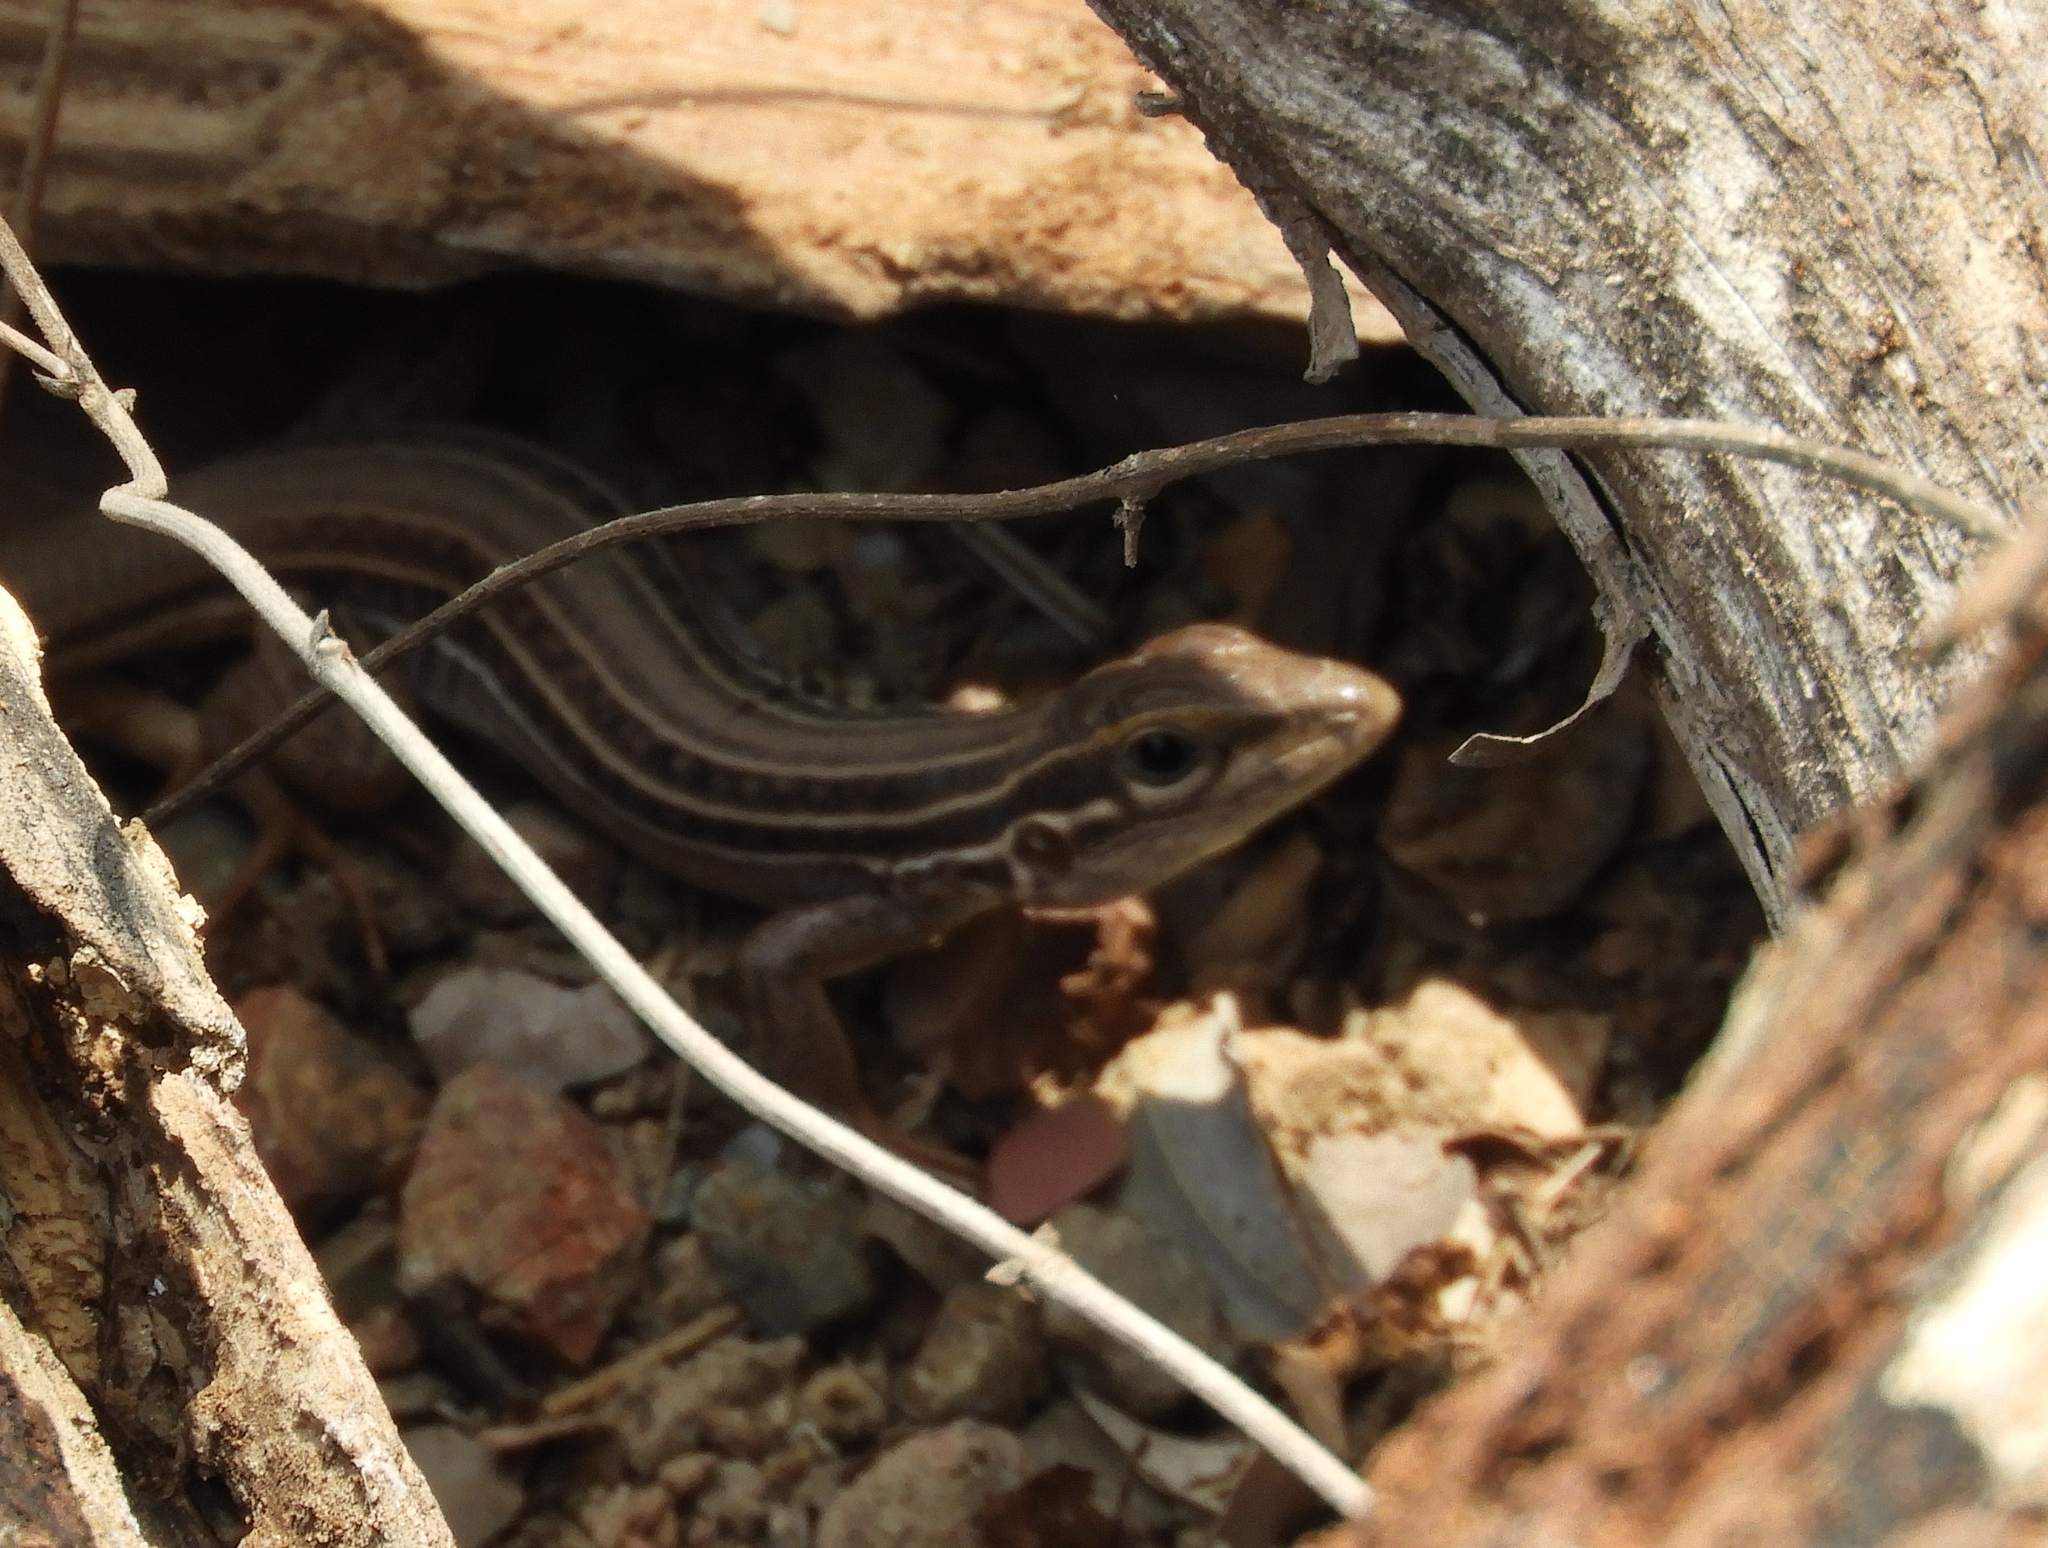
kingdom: Animalia
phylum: Chordata
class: Squamata
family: Teiidae
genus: Aspidoscelis
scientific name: Aspidoscelis costatus
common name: Western mexico whiptail
